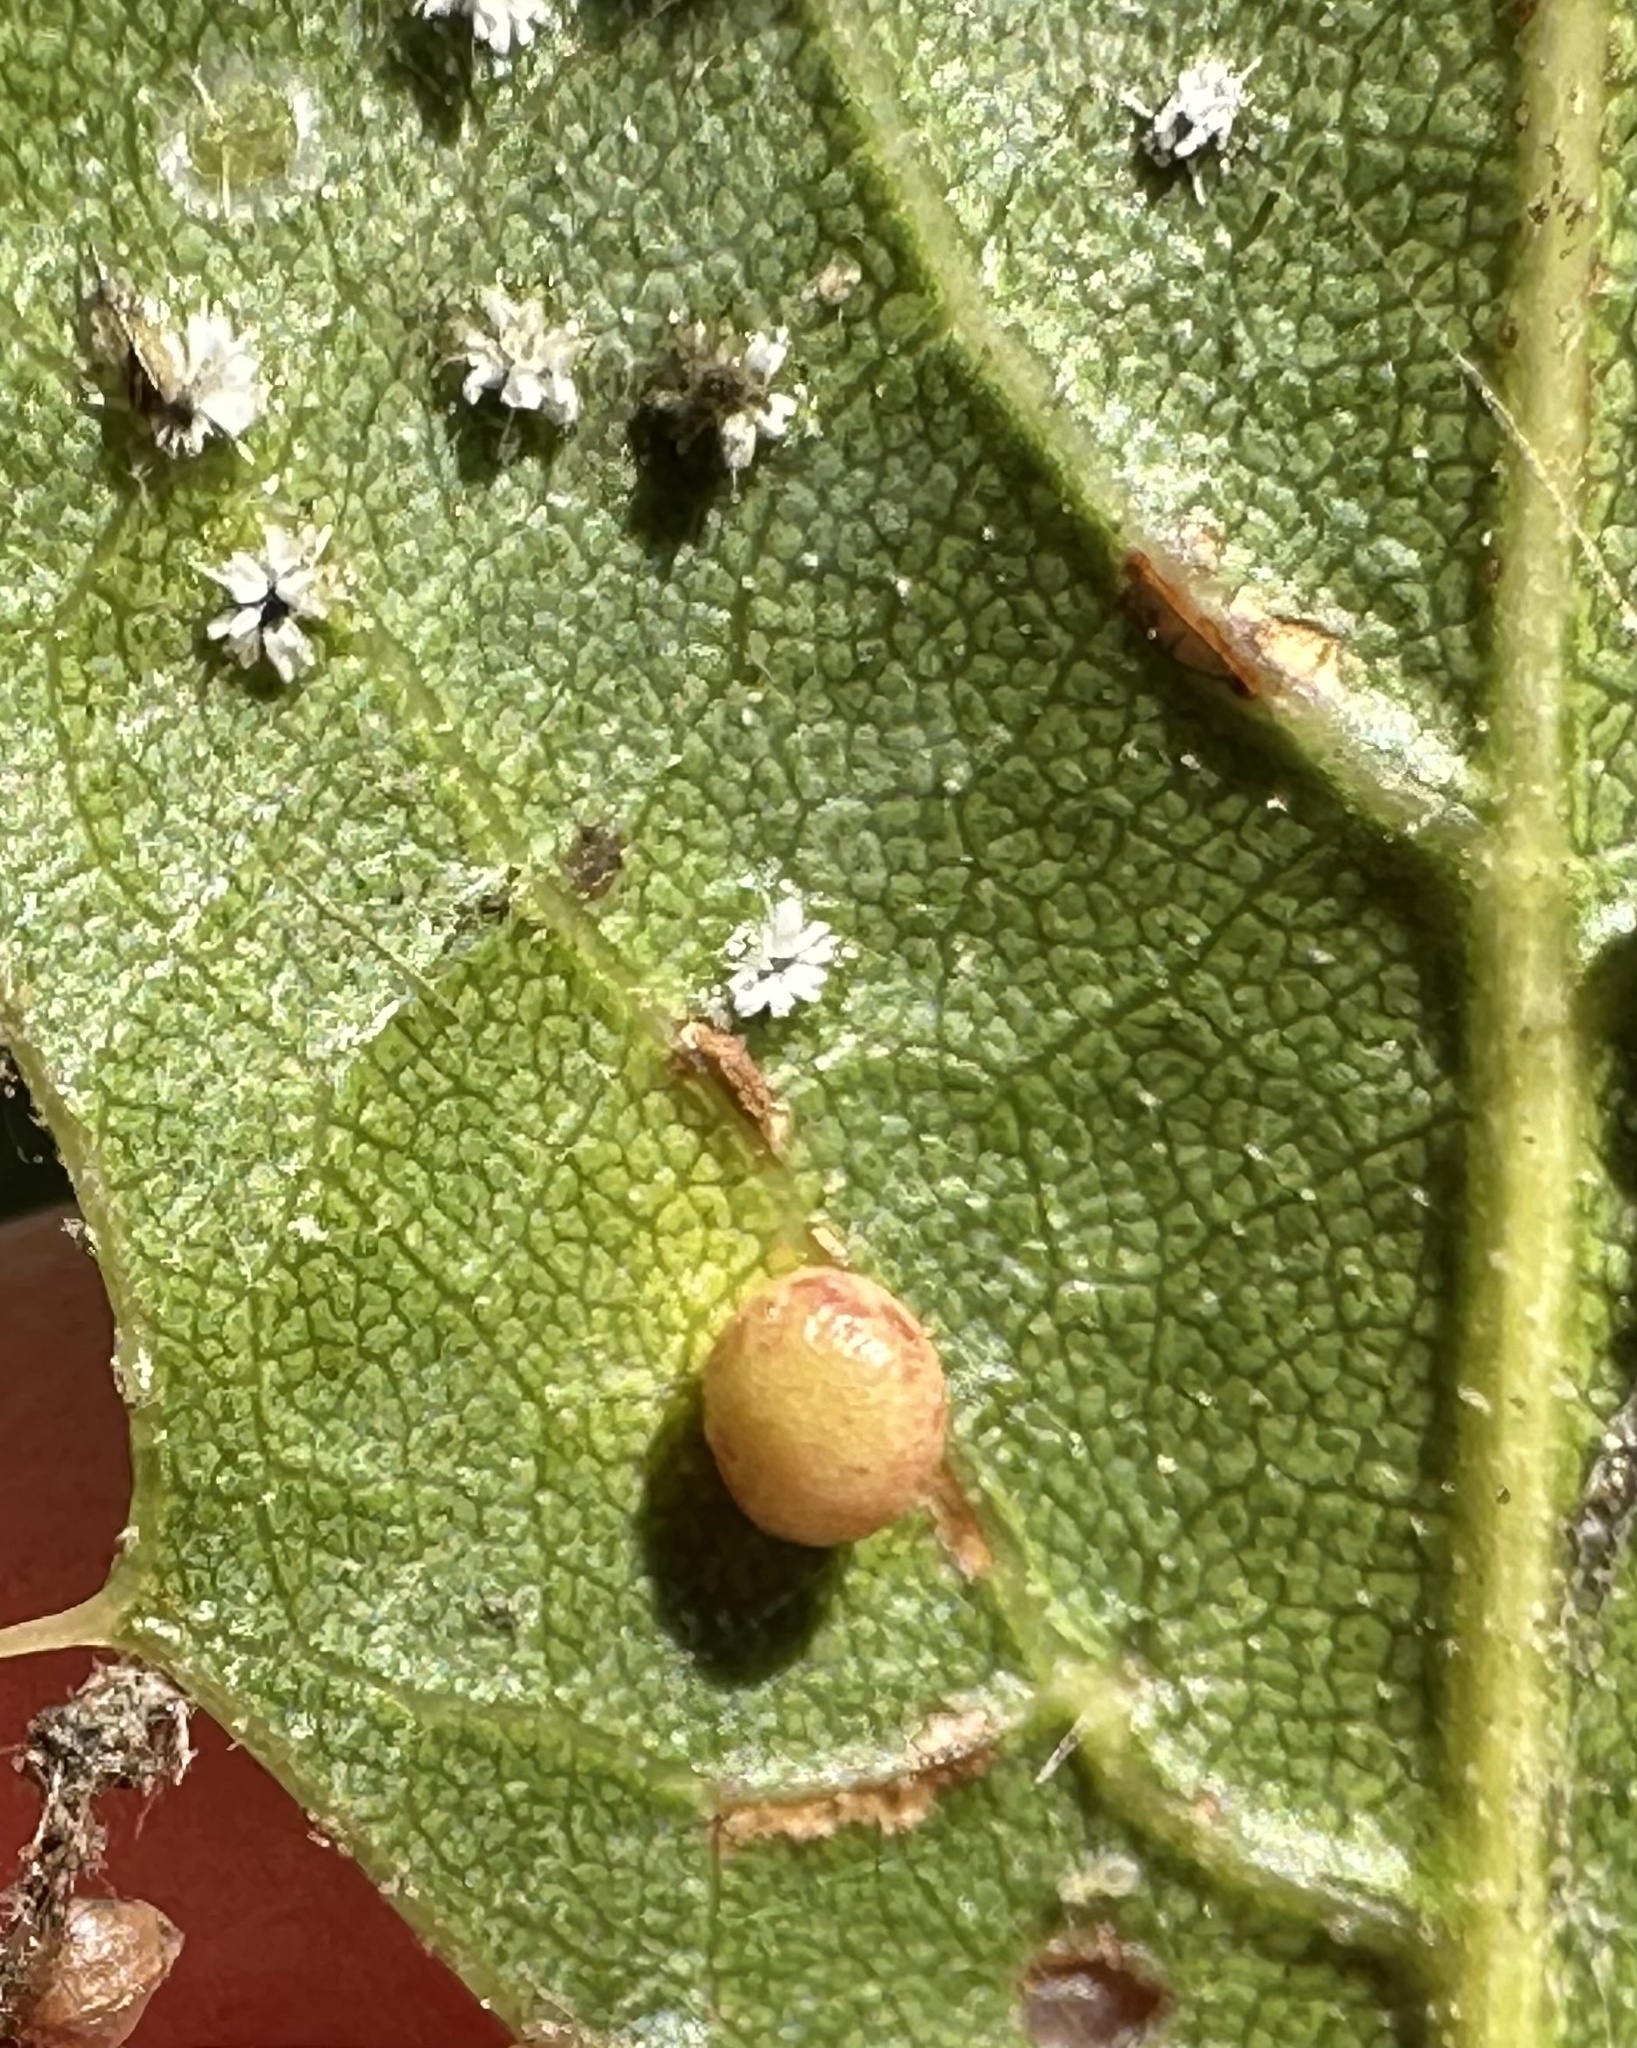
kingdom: Animalia
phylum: Arthropoda
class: Insecta
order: Hymenoptera
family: Cynipidae
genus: Dryocosmus
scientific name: Dryocosmus
